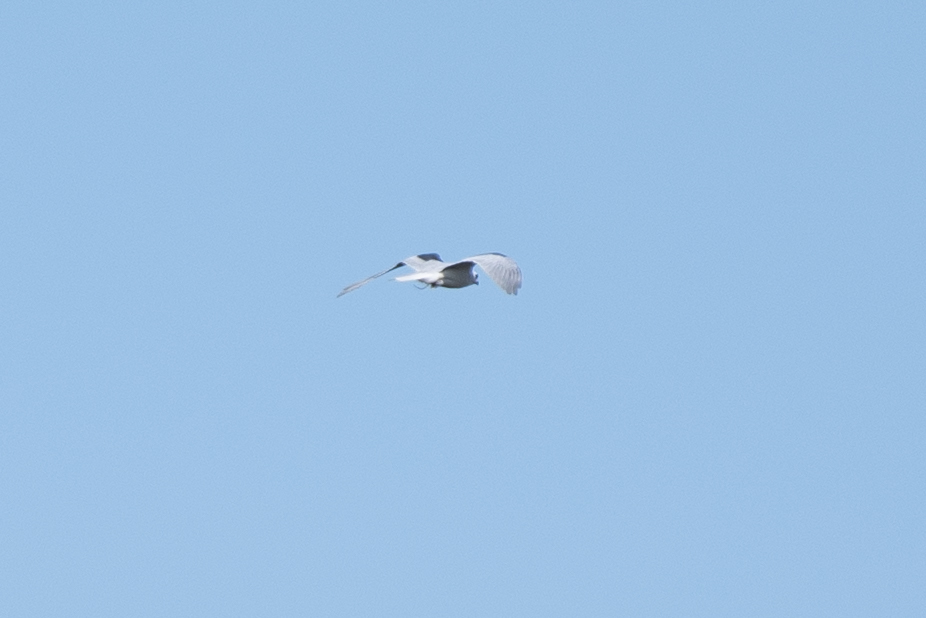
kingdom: Animalia
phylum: Chordata
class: Aves
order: Accipitriformes
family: Accipitridae
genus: Elanus
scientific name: Elanus leucurus
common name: White-tailed kite
